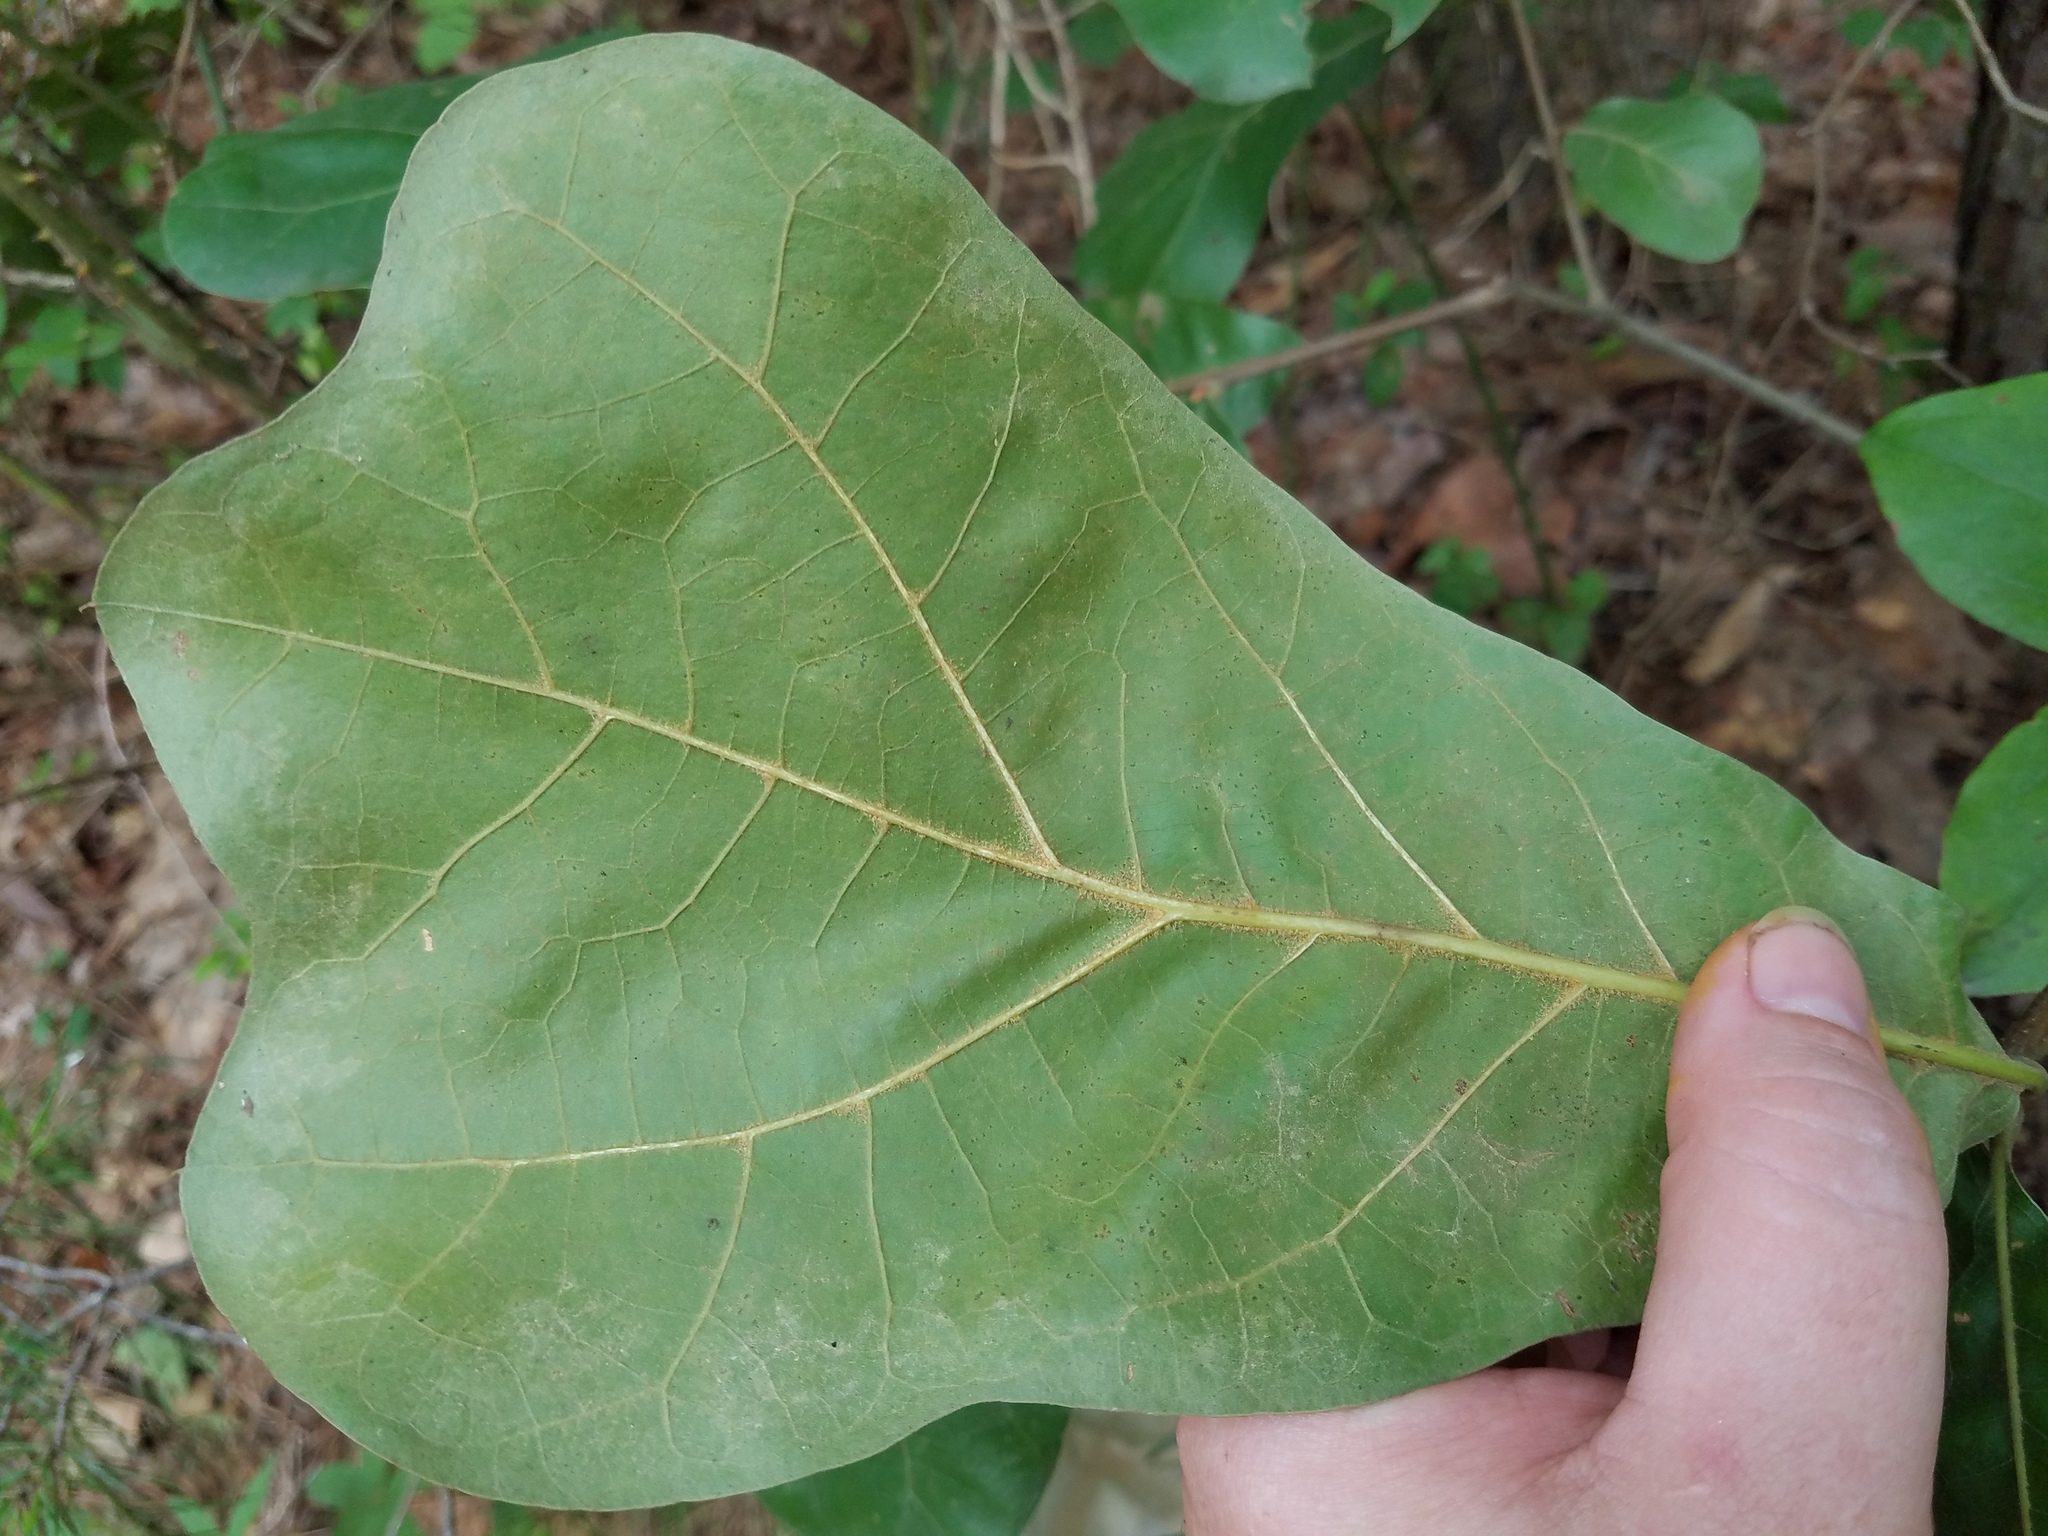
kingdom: Plantae
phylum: Tracheophyta
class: Magnoliopsida
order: Fagales
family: Fagaceae
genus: Quercus
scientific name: Quercus marilandica
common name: Blackjack oak
